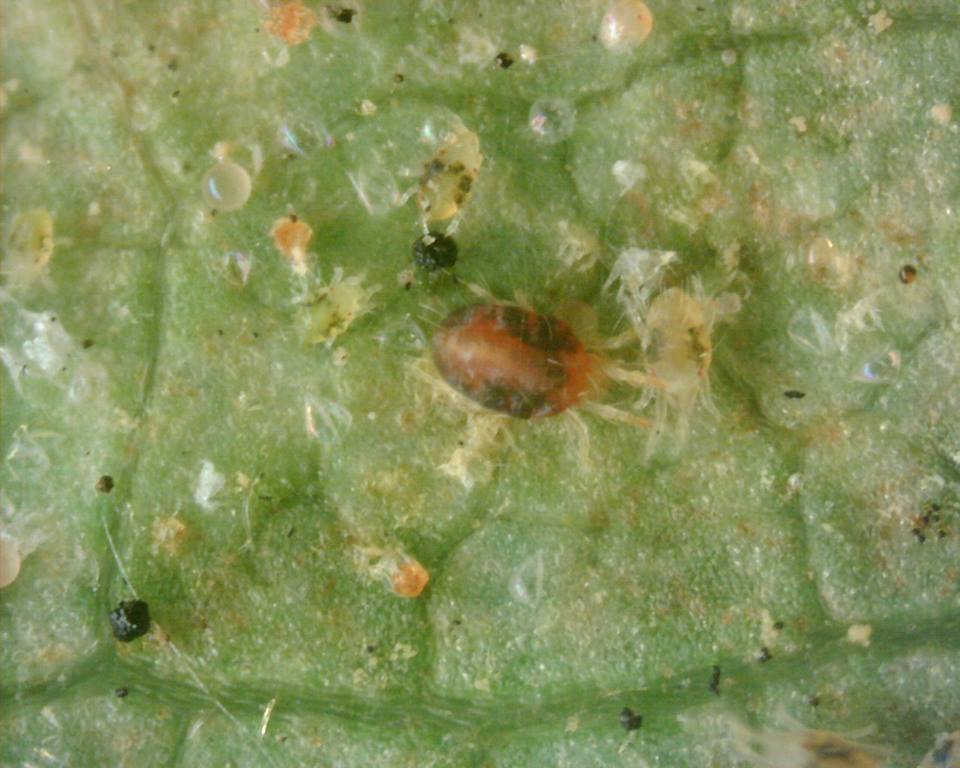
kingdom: Animalia
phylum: Arthropoda
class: Arachnida
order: Trombidiformes
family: Tetranychidae
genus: Tetranychus
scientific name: Tetranychus urticae
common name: Carmine spider mite
